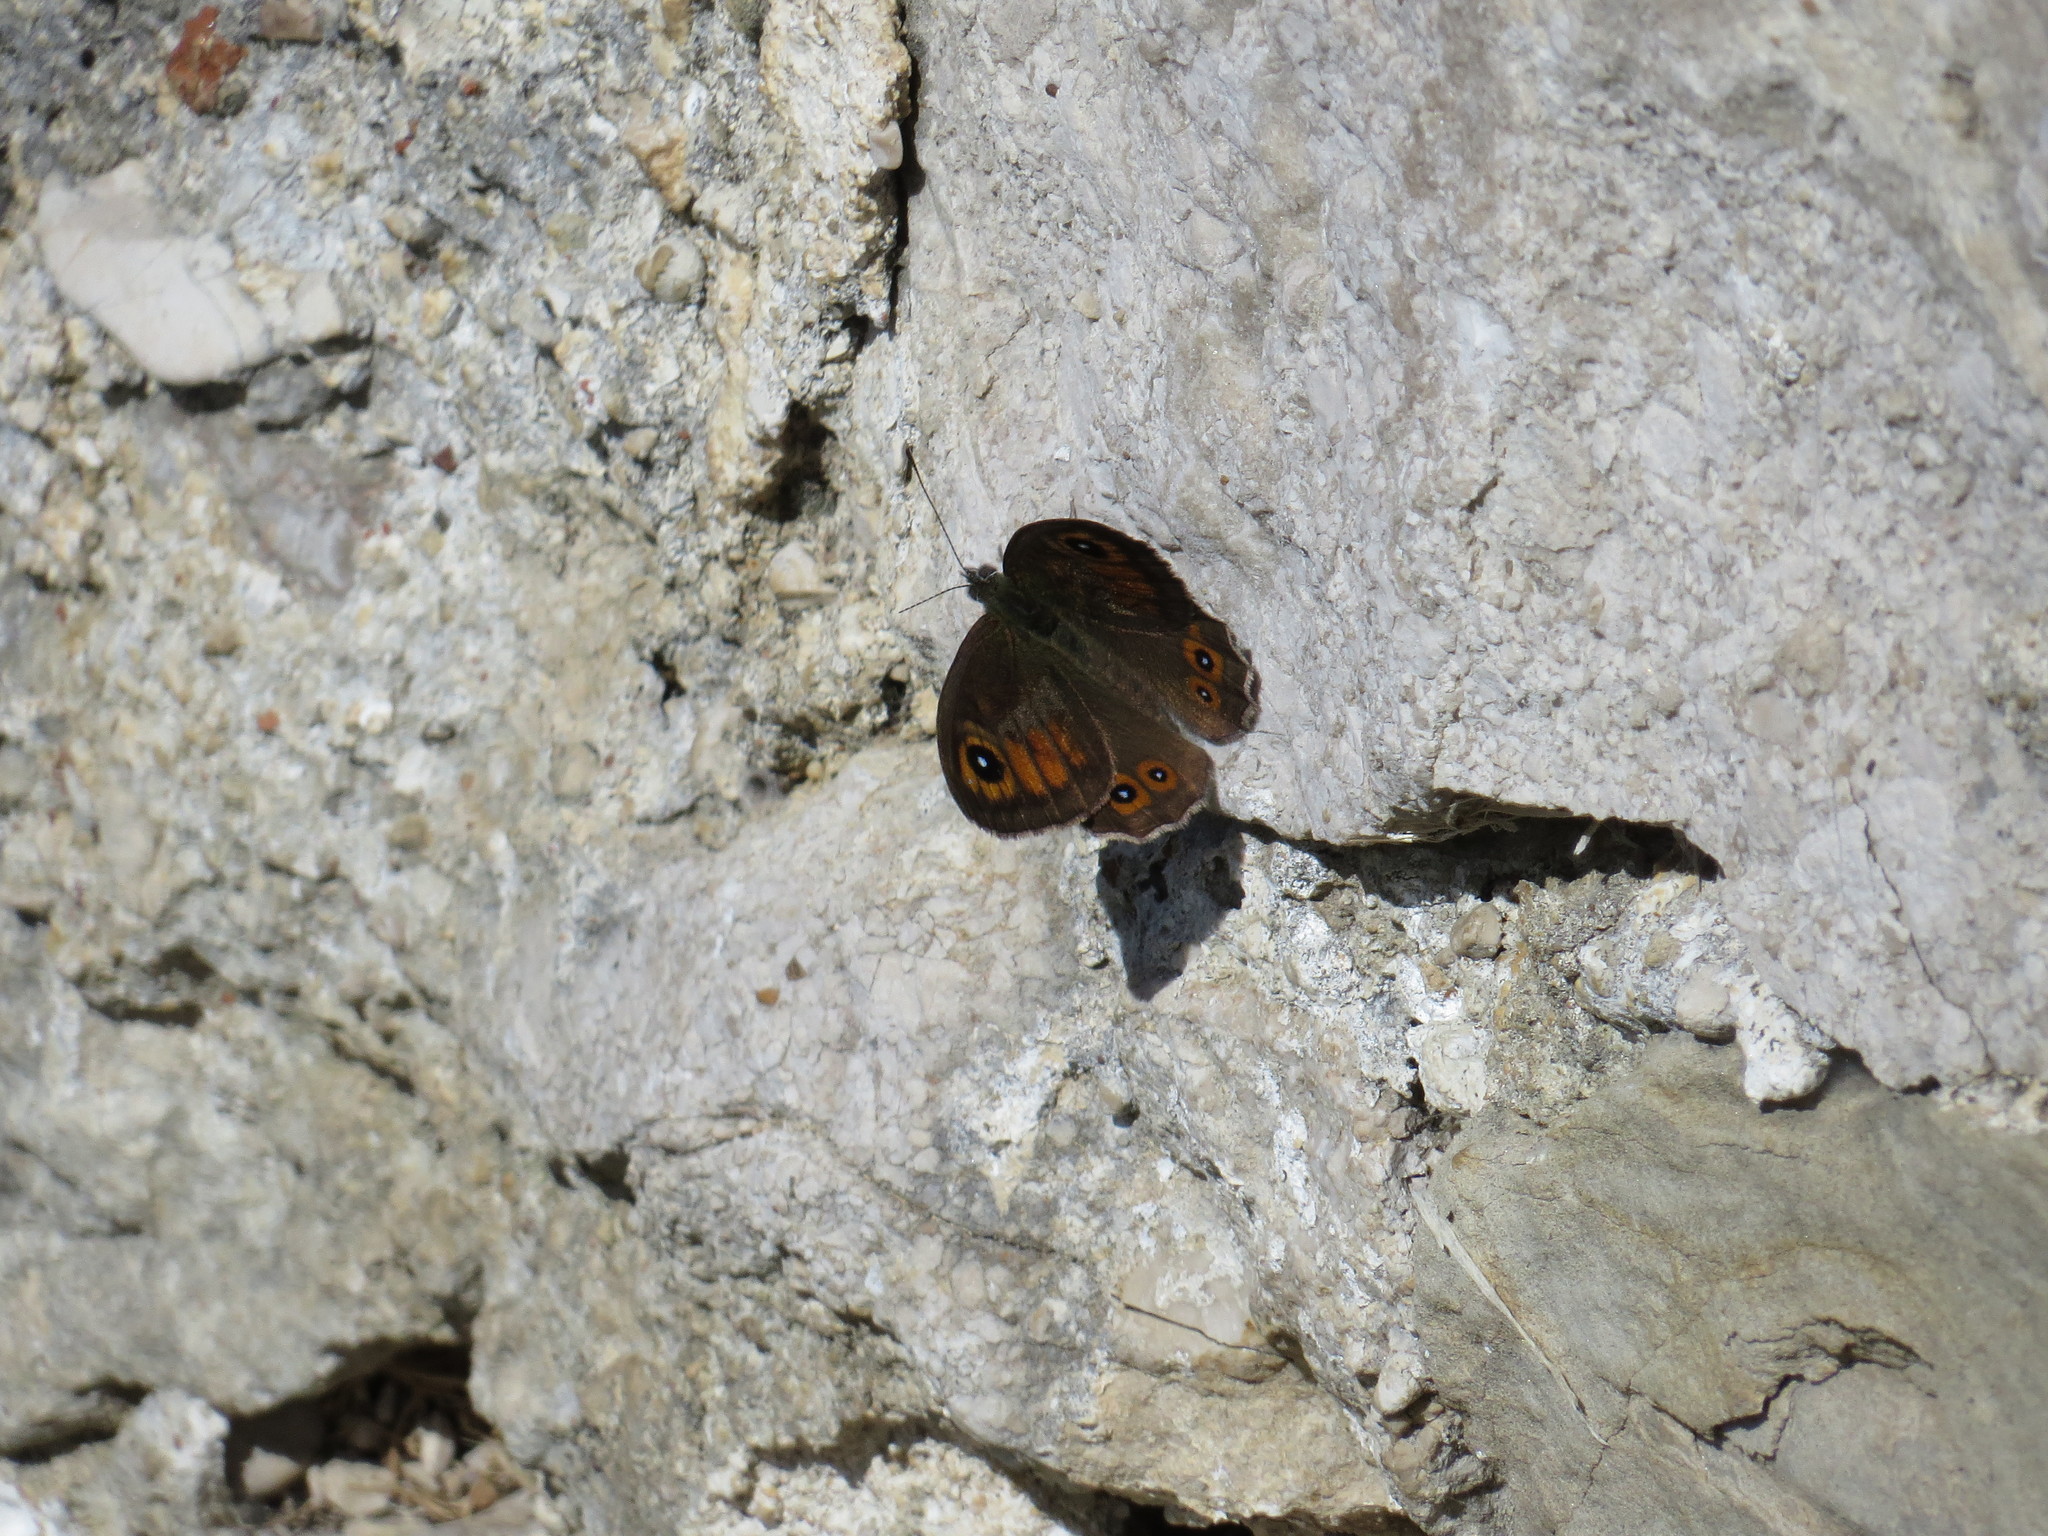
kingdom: Animalia
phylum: Arthropoda
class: Insecta
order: Lepidoptera
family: Nymphalidae
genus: Pararge
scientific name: Pararge Lasiommata maera
